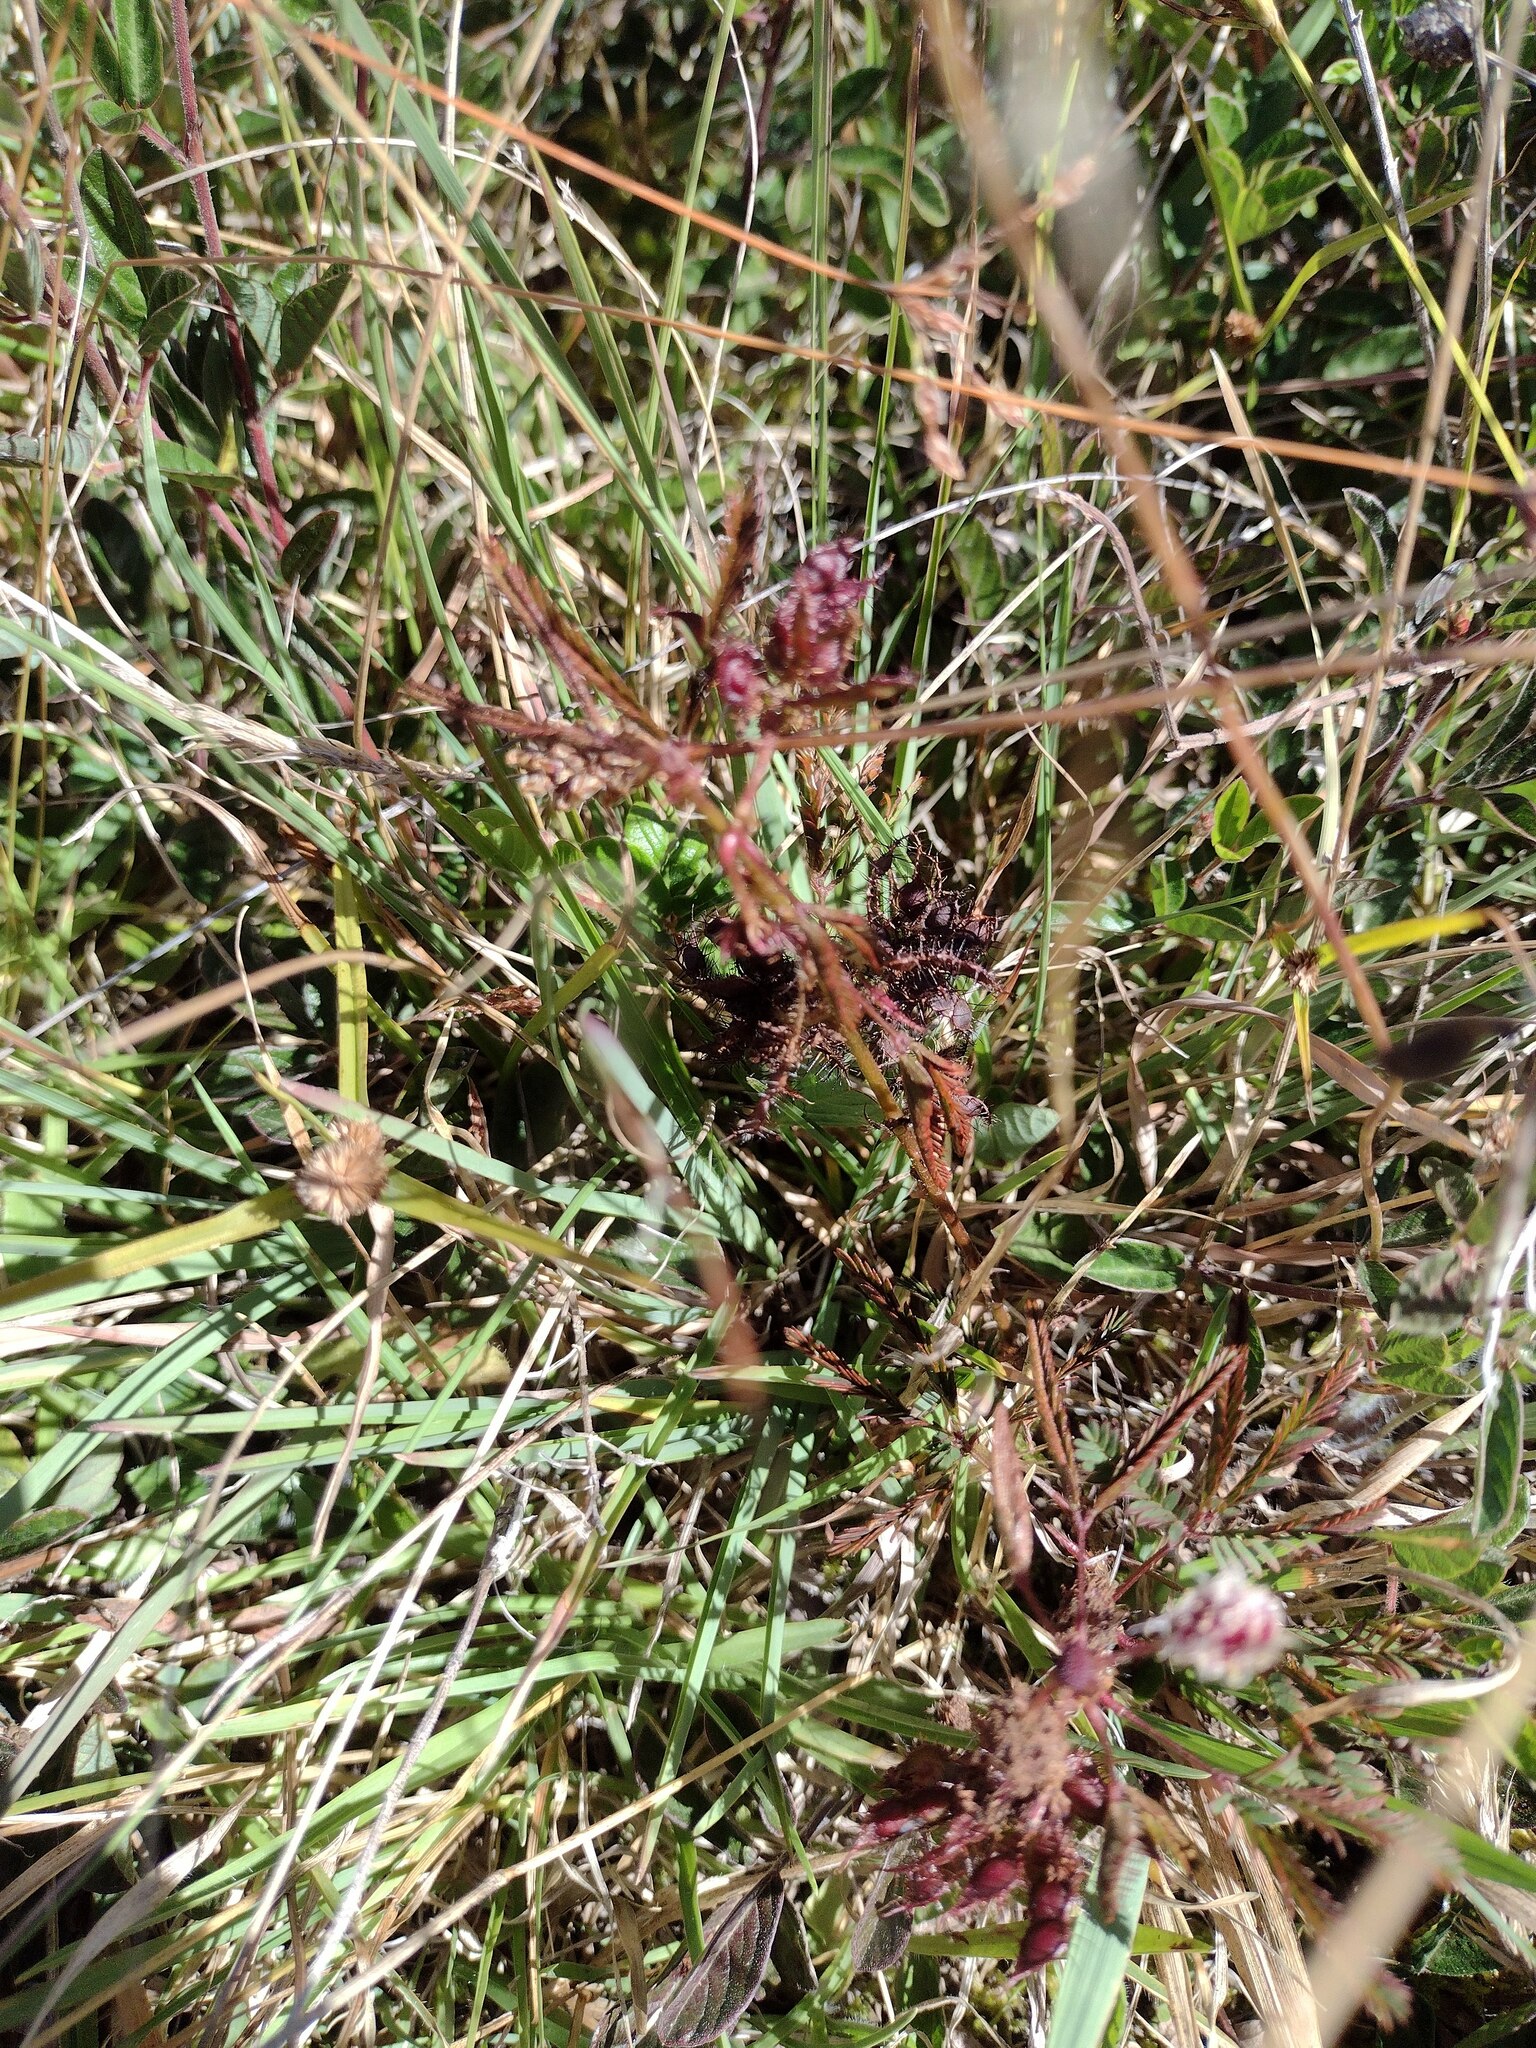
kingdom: Plantae
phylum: Tracheophyta
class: Magnoliopsida
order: Fabales
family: Fabaceae
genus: Mimosa
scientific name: Mimosa pudica
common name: Sensitive plant
